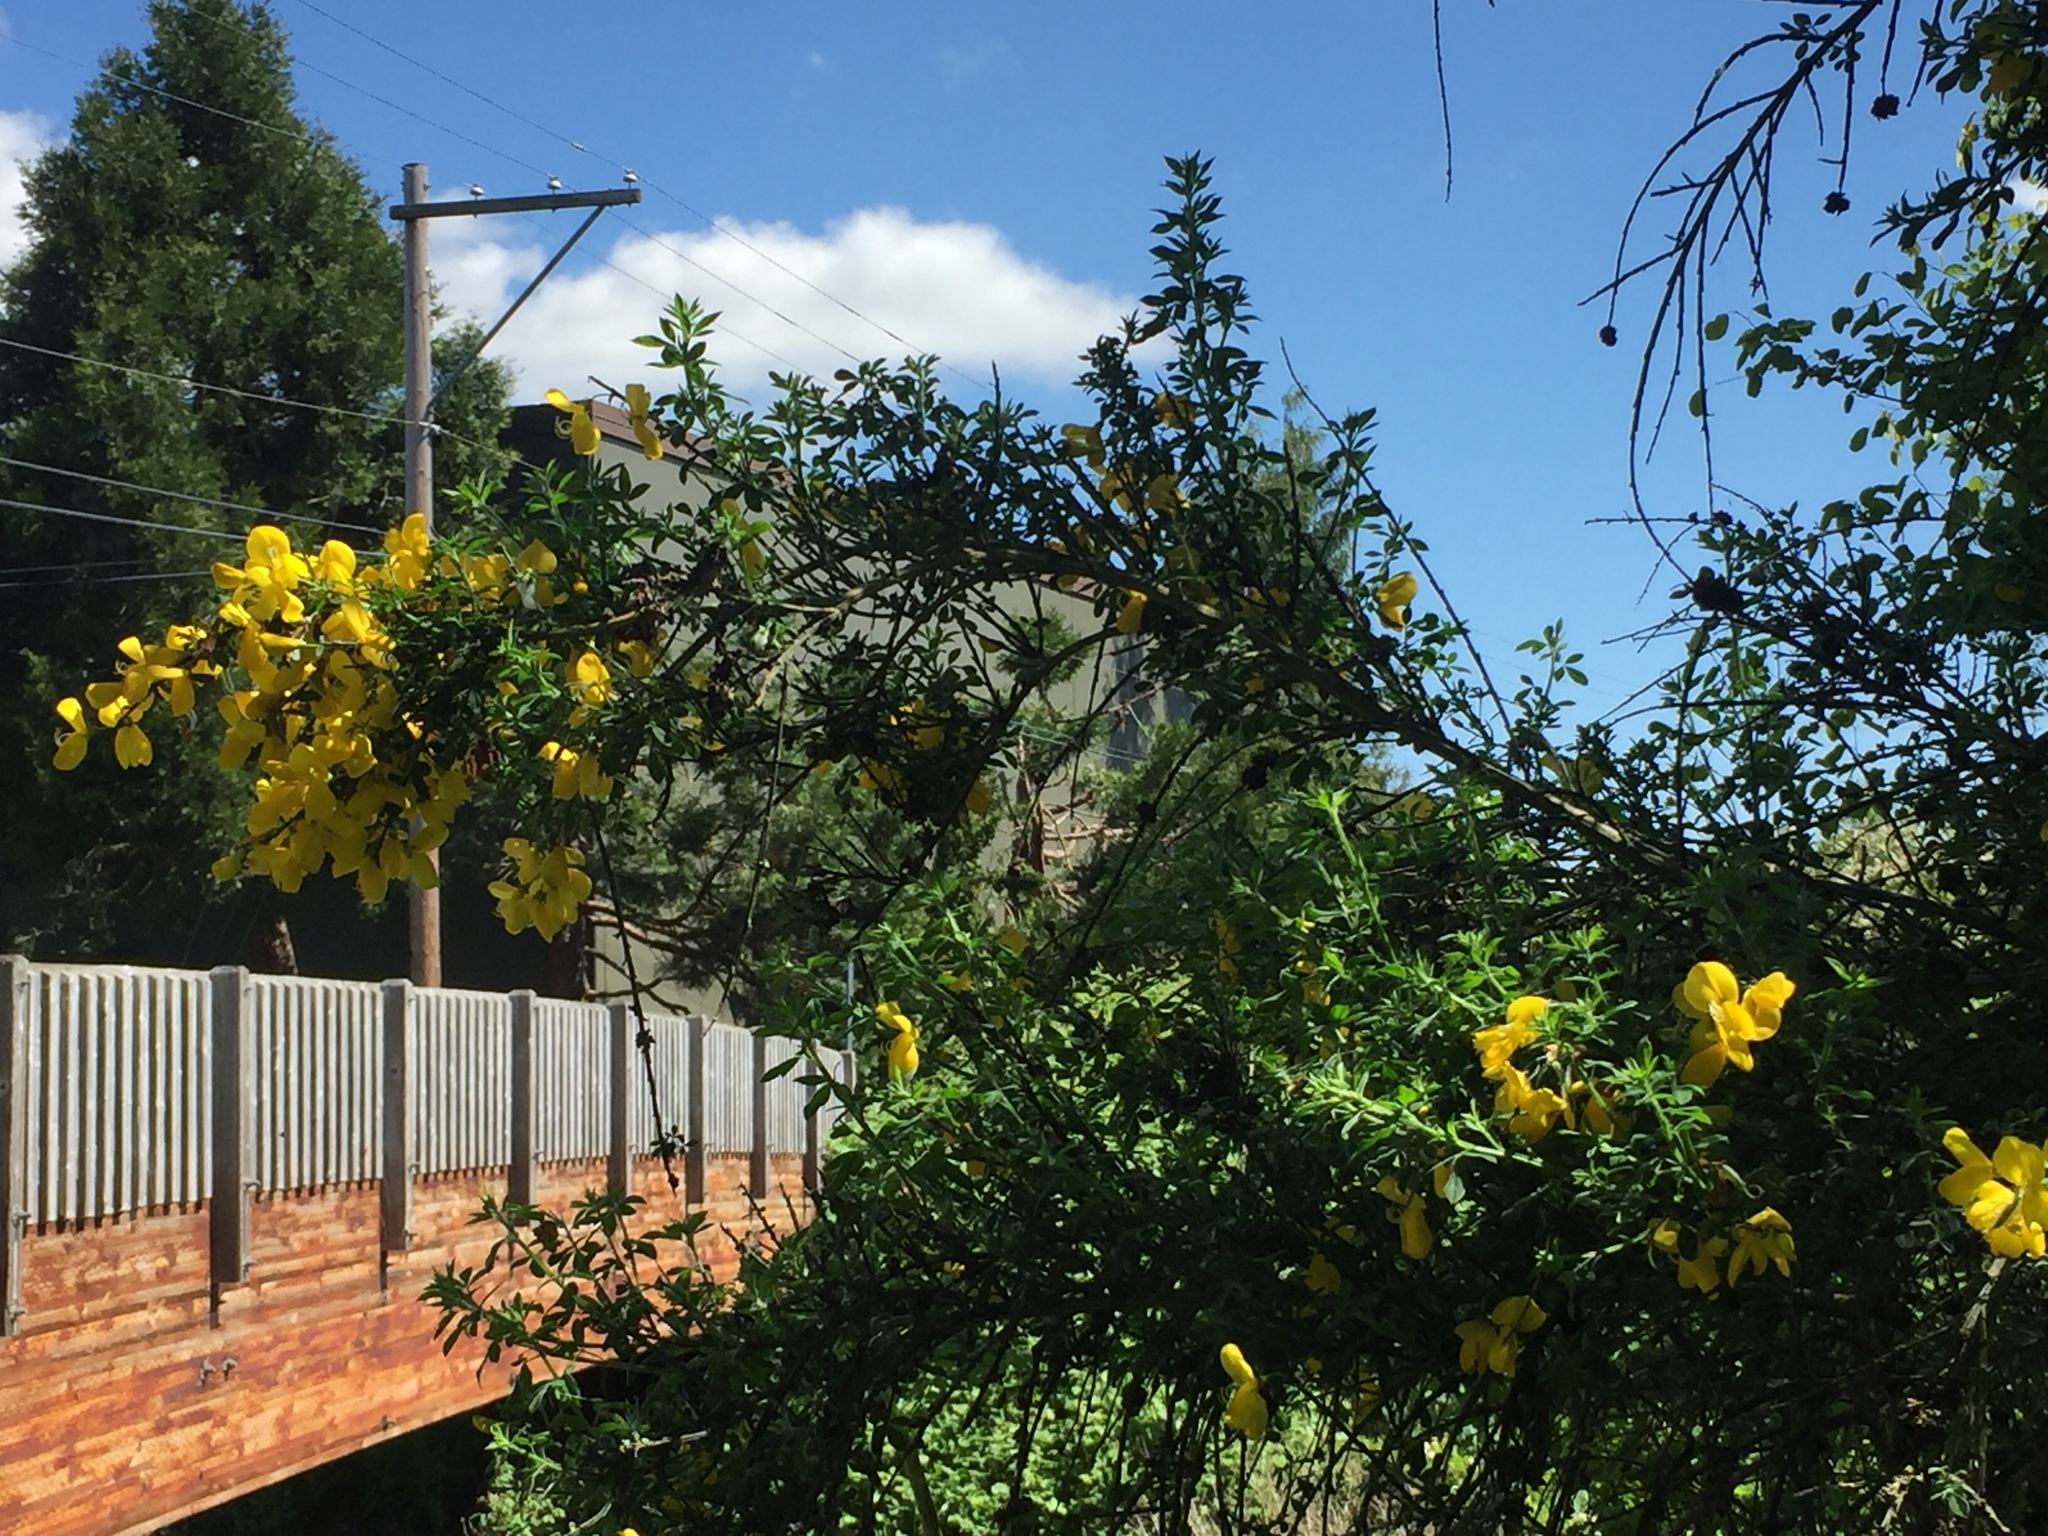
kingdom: Plantae
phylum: Tracheophyta
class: Magnoliopsida
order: Fabales
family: Fabaceae
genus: Cytisus
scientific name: Cytisus scoparius
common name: Scotch broom
